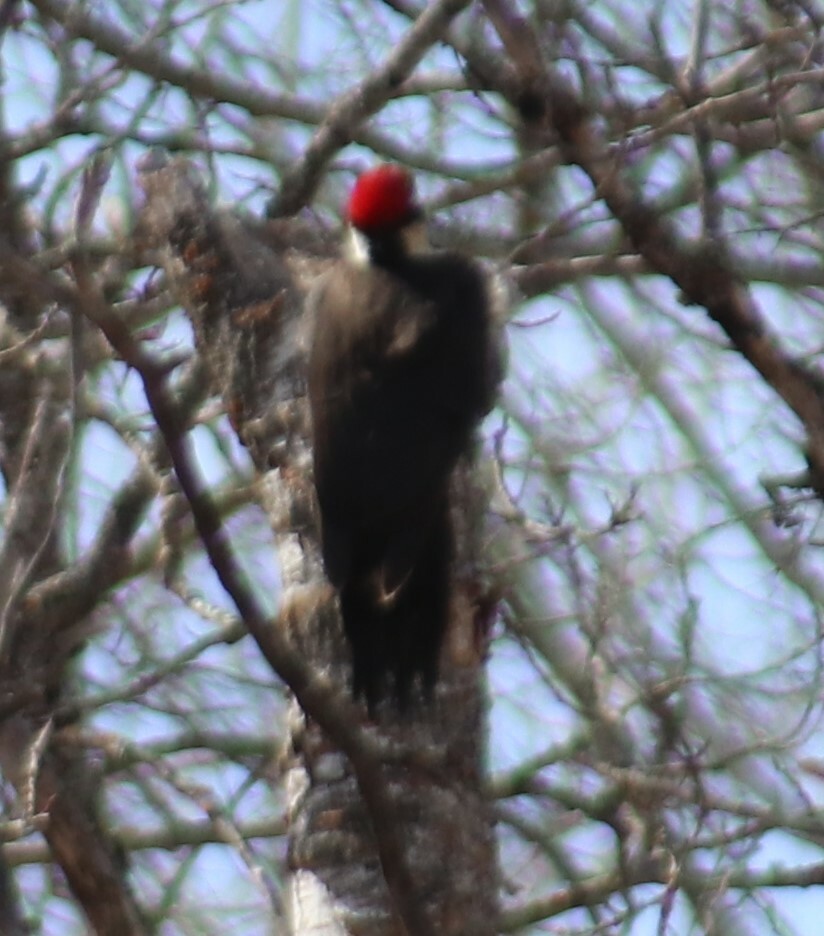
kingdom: Animalia
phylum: Chordata
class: Aves
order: Piciformes
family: Picidae
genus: Dryocopus
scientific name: Dryocopus pileatus
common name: Pileated woodpecker
